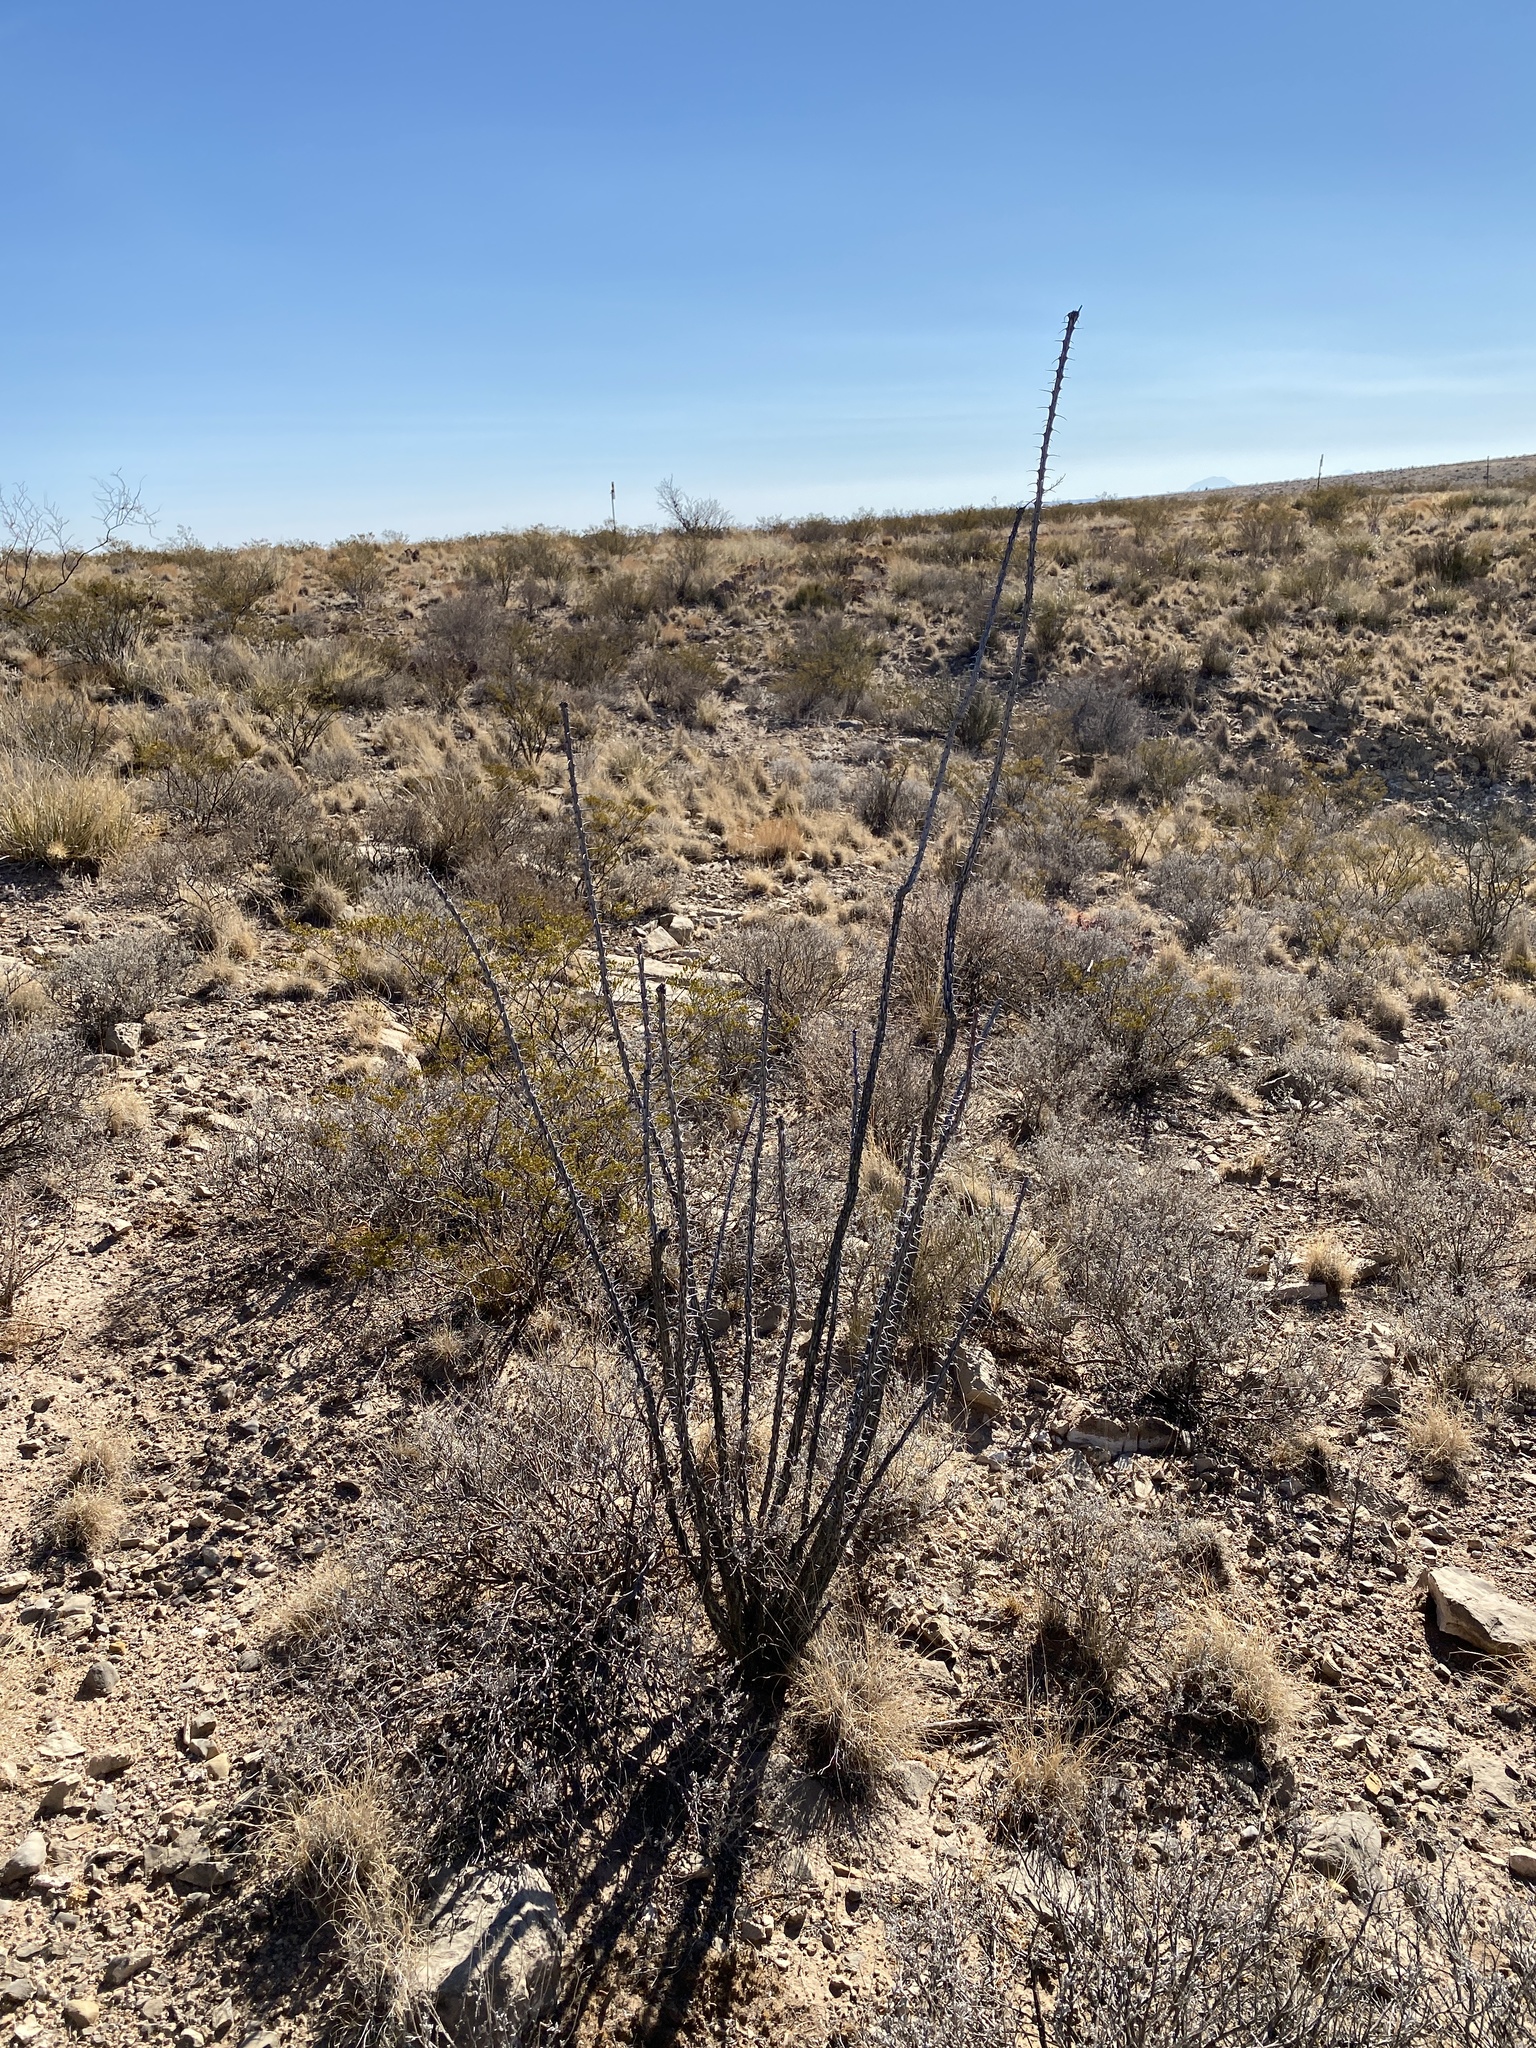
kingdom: Plantae
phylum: Tracheophyta
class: Magnoliopsida
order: Ericales
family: Fouquieriaceae
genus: Fouquieria
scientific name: Fouquieria splendens
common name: Vine-cactus
